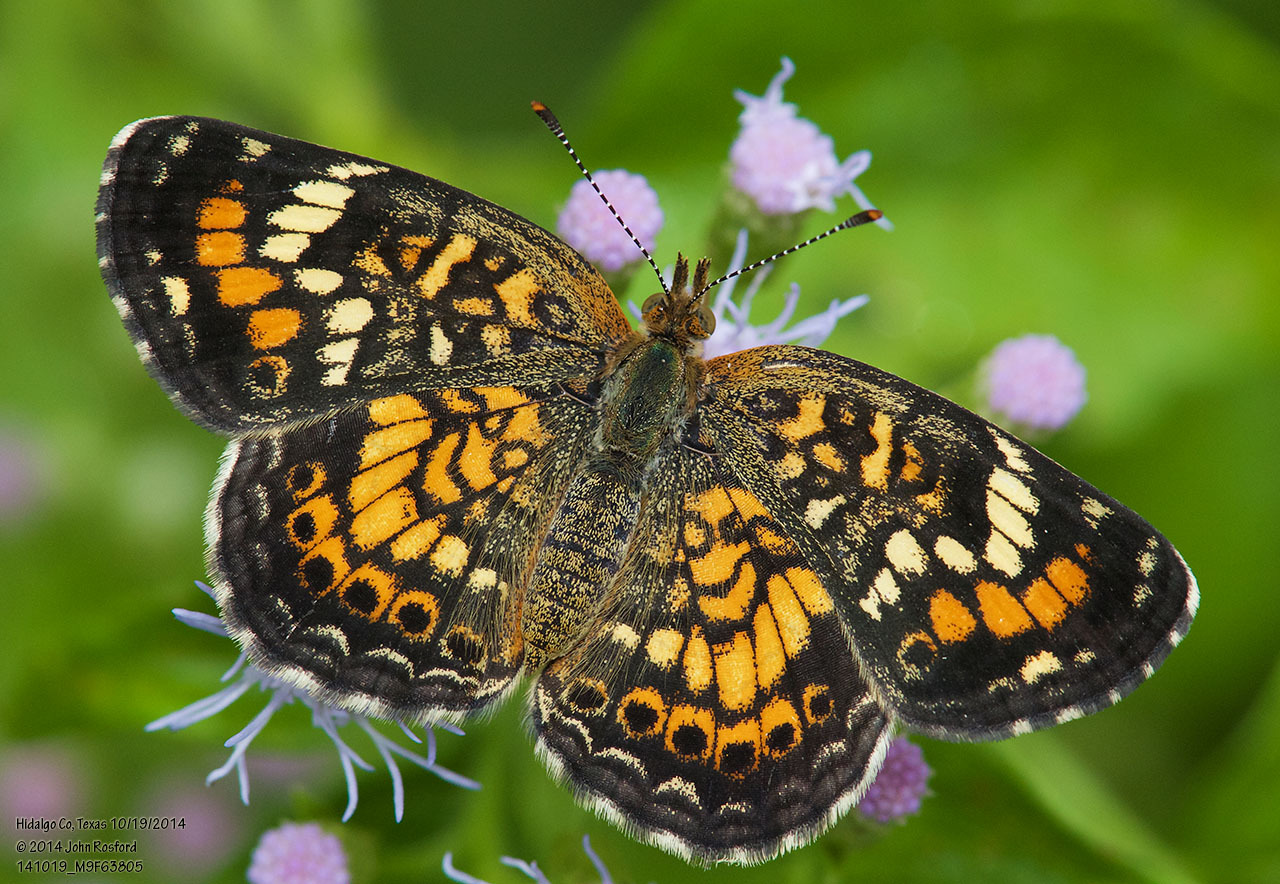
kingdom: Animalia
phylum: Arthropoda
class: Insecta
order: Lepidoptera
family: Nymphalidae
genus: Phyciodes
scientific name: Phyciodes phaon
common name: Phaon crescent
